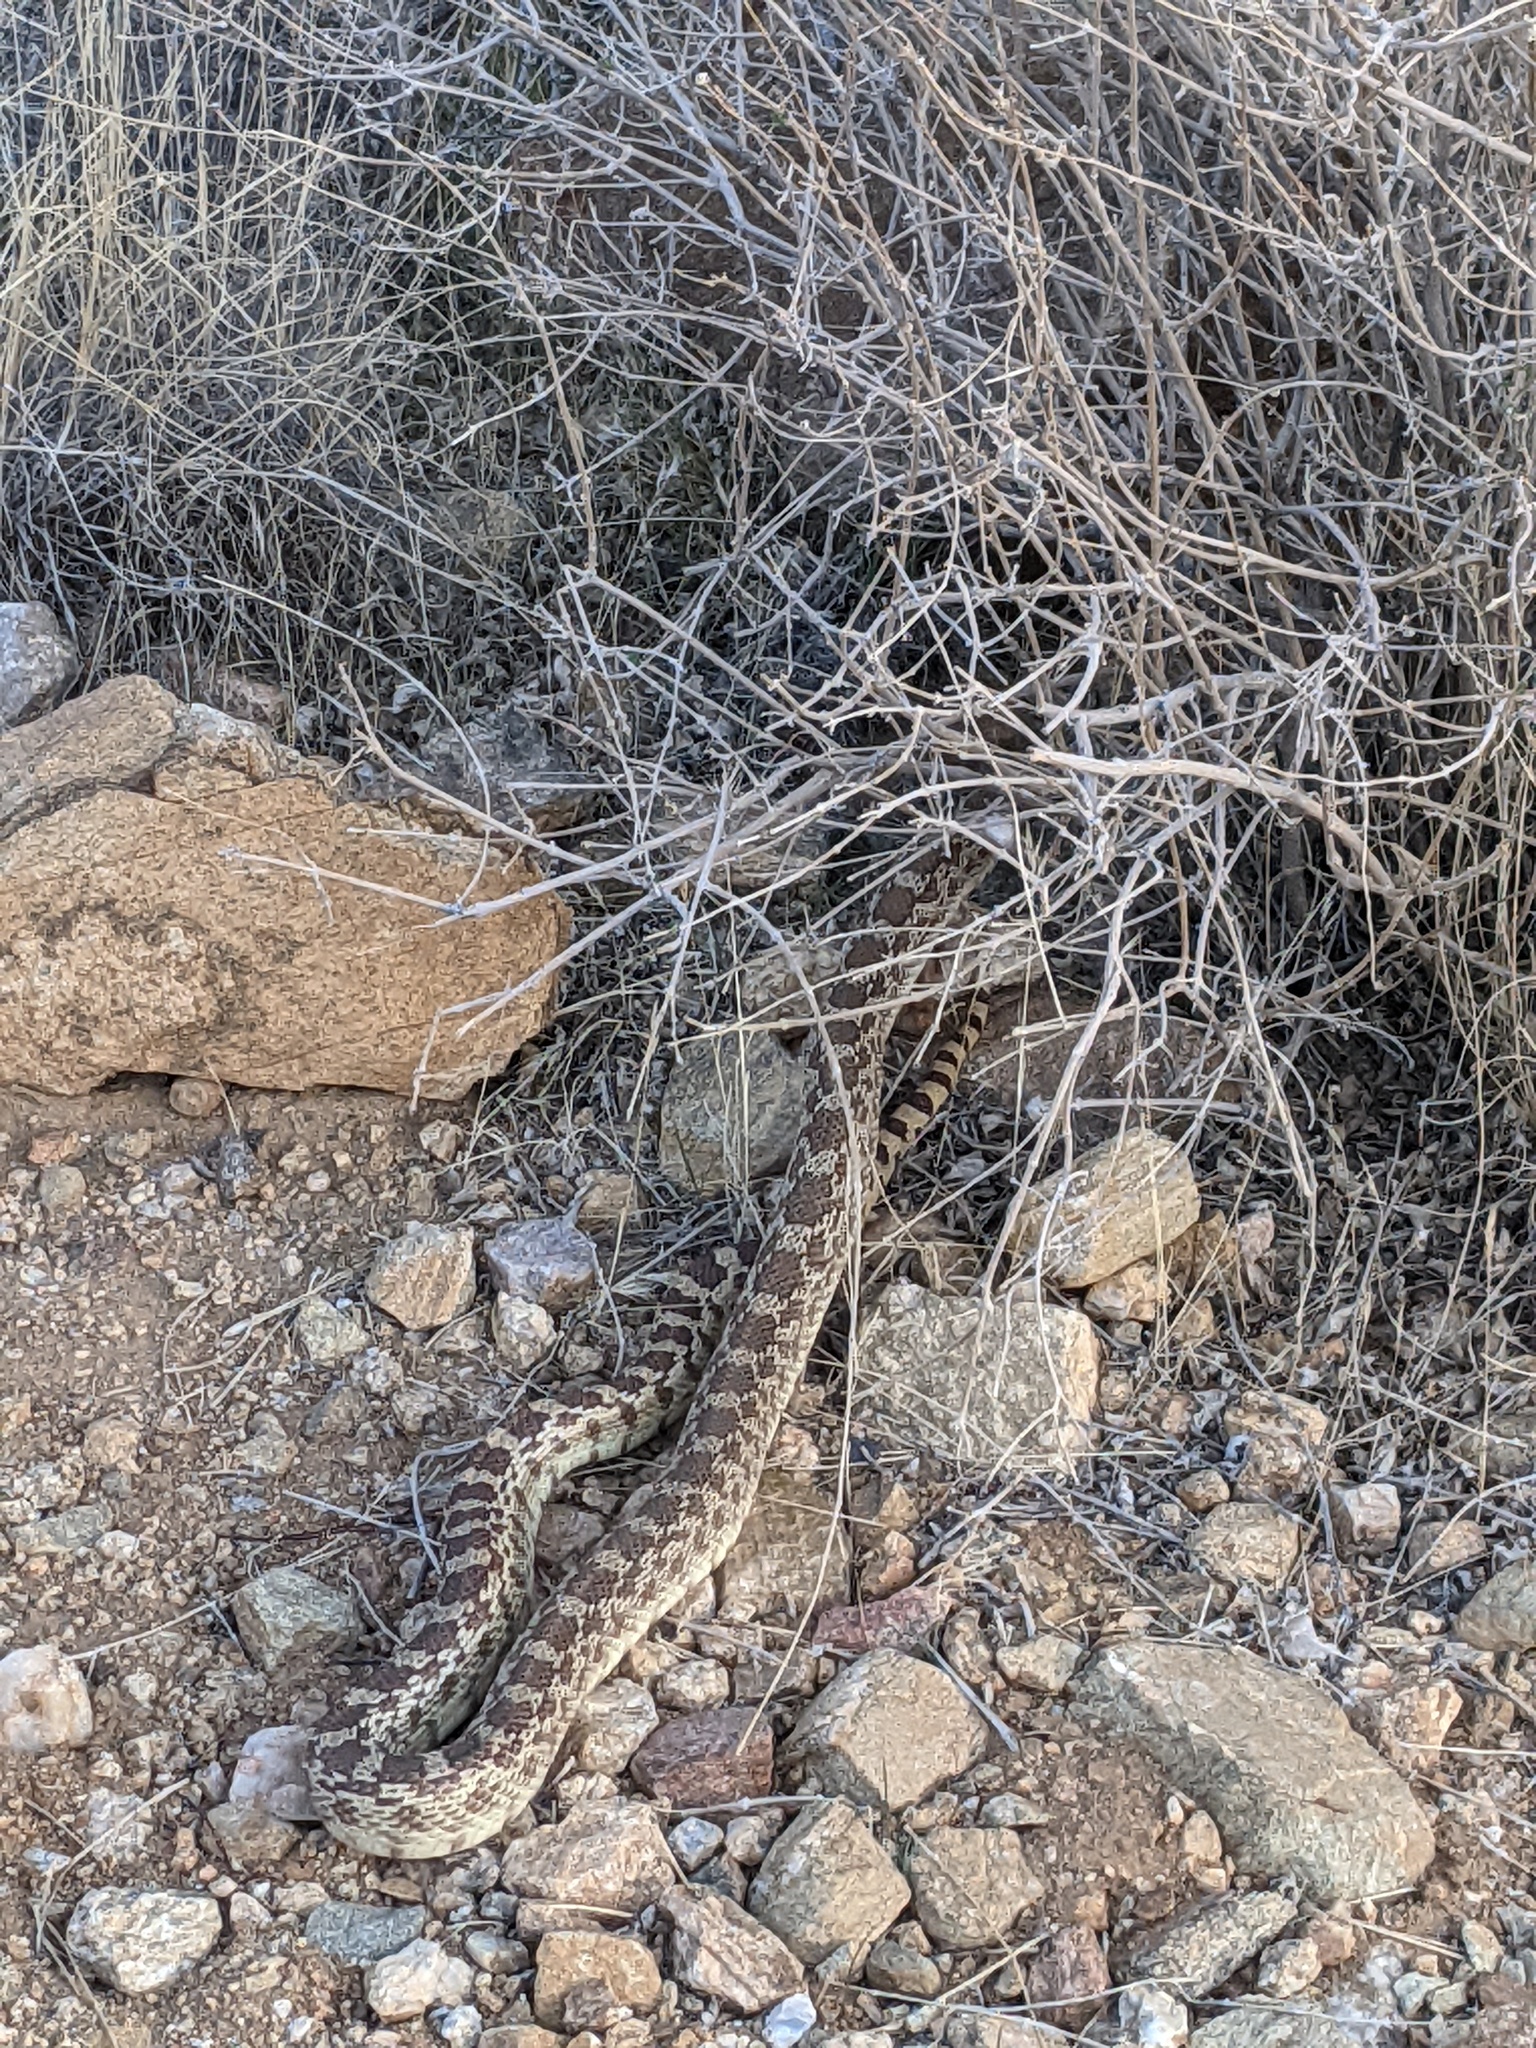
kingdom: Animalia
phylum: Chordata
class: Squamata
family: Colubridae
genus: Pituophis
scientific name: Pituophis catenifer
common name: Gopher snake
